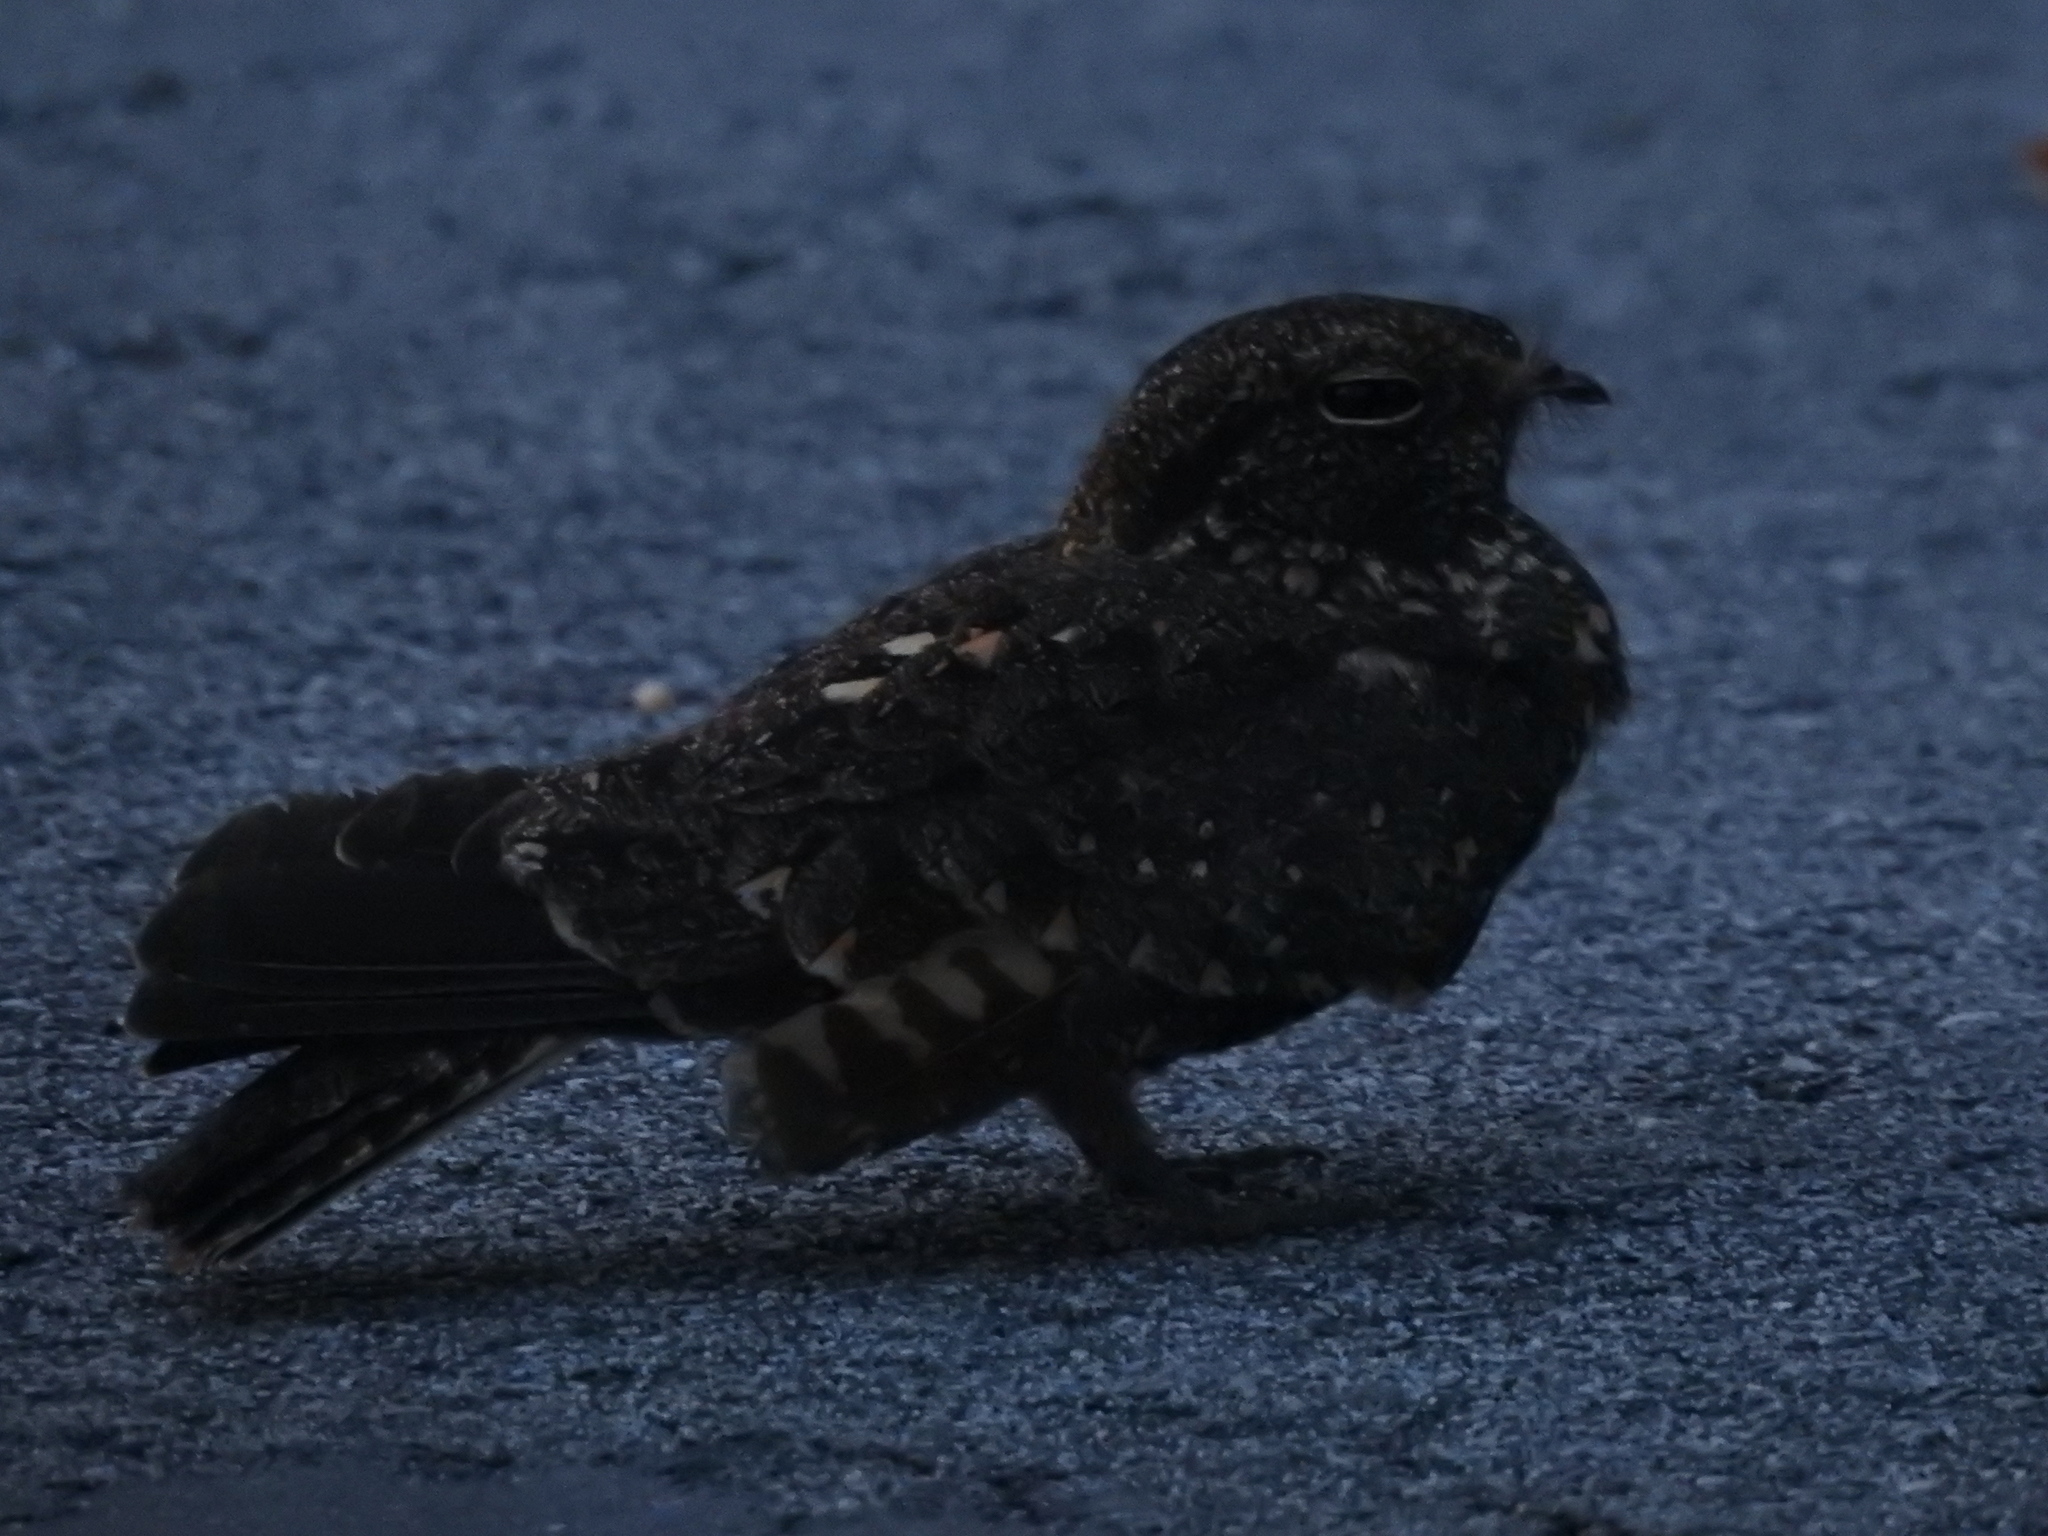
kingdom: Animalia
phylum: Chordata
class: Aves
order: Caprimulgiformes
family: Caprimulgidae
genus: Caprimulgus
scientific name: Caprimulgus affinis
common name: Savanna nightjar
